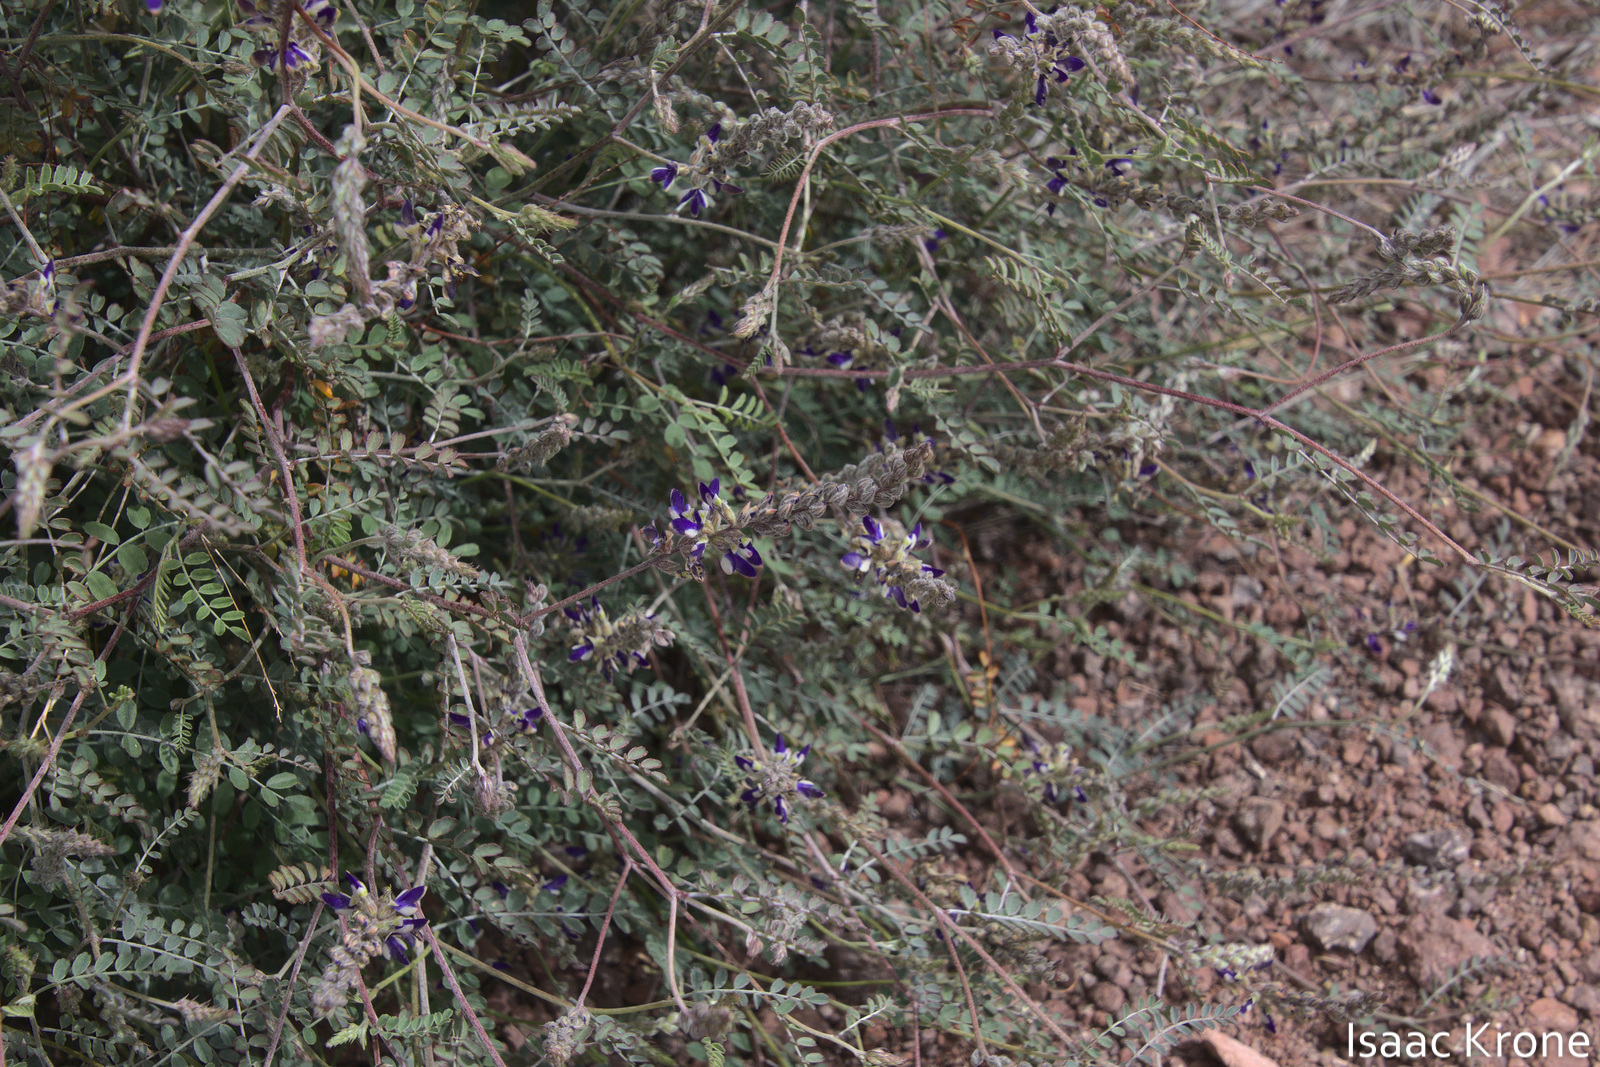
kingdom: Plantae
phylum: Tracheophyta
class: Magnoliopsida
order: Fabales
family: Fabaceae
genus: Marina
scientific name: Marina parryi
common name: Parry's marina
